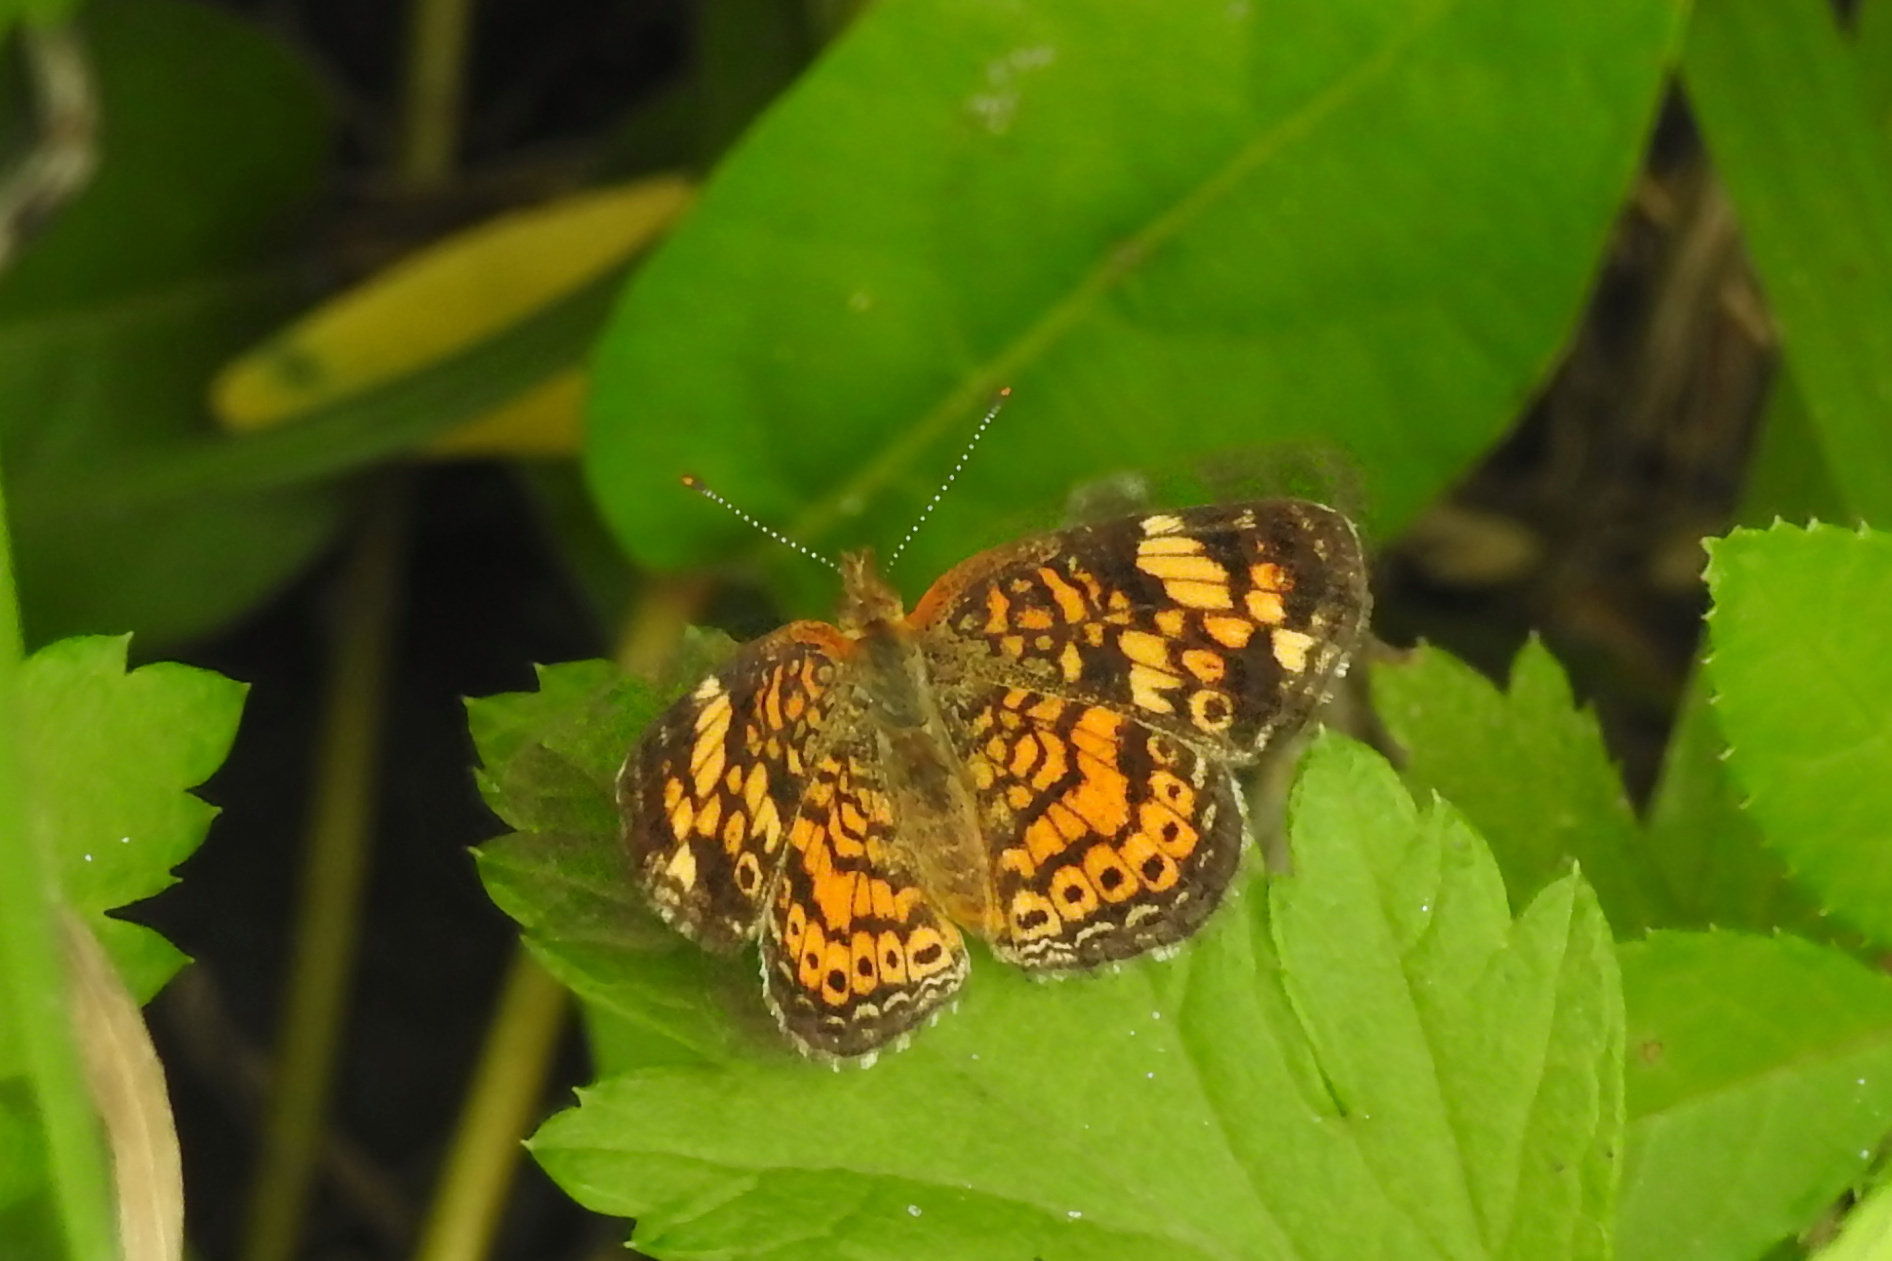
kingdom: Animalia
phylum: Arthropoda
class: Insecta
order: Lepidoptera
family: Nymphalidae
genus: Phyciodes
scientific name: Phyciodes tharos
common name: Pearl crescent
